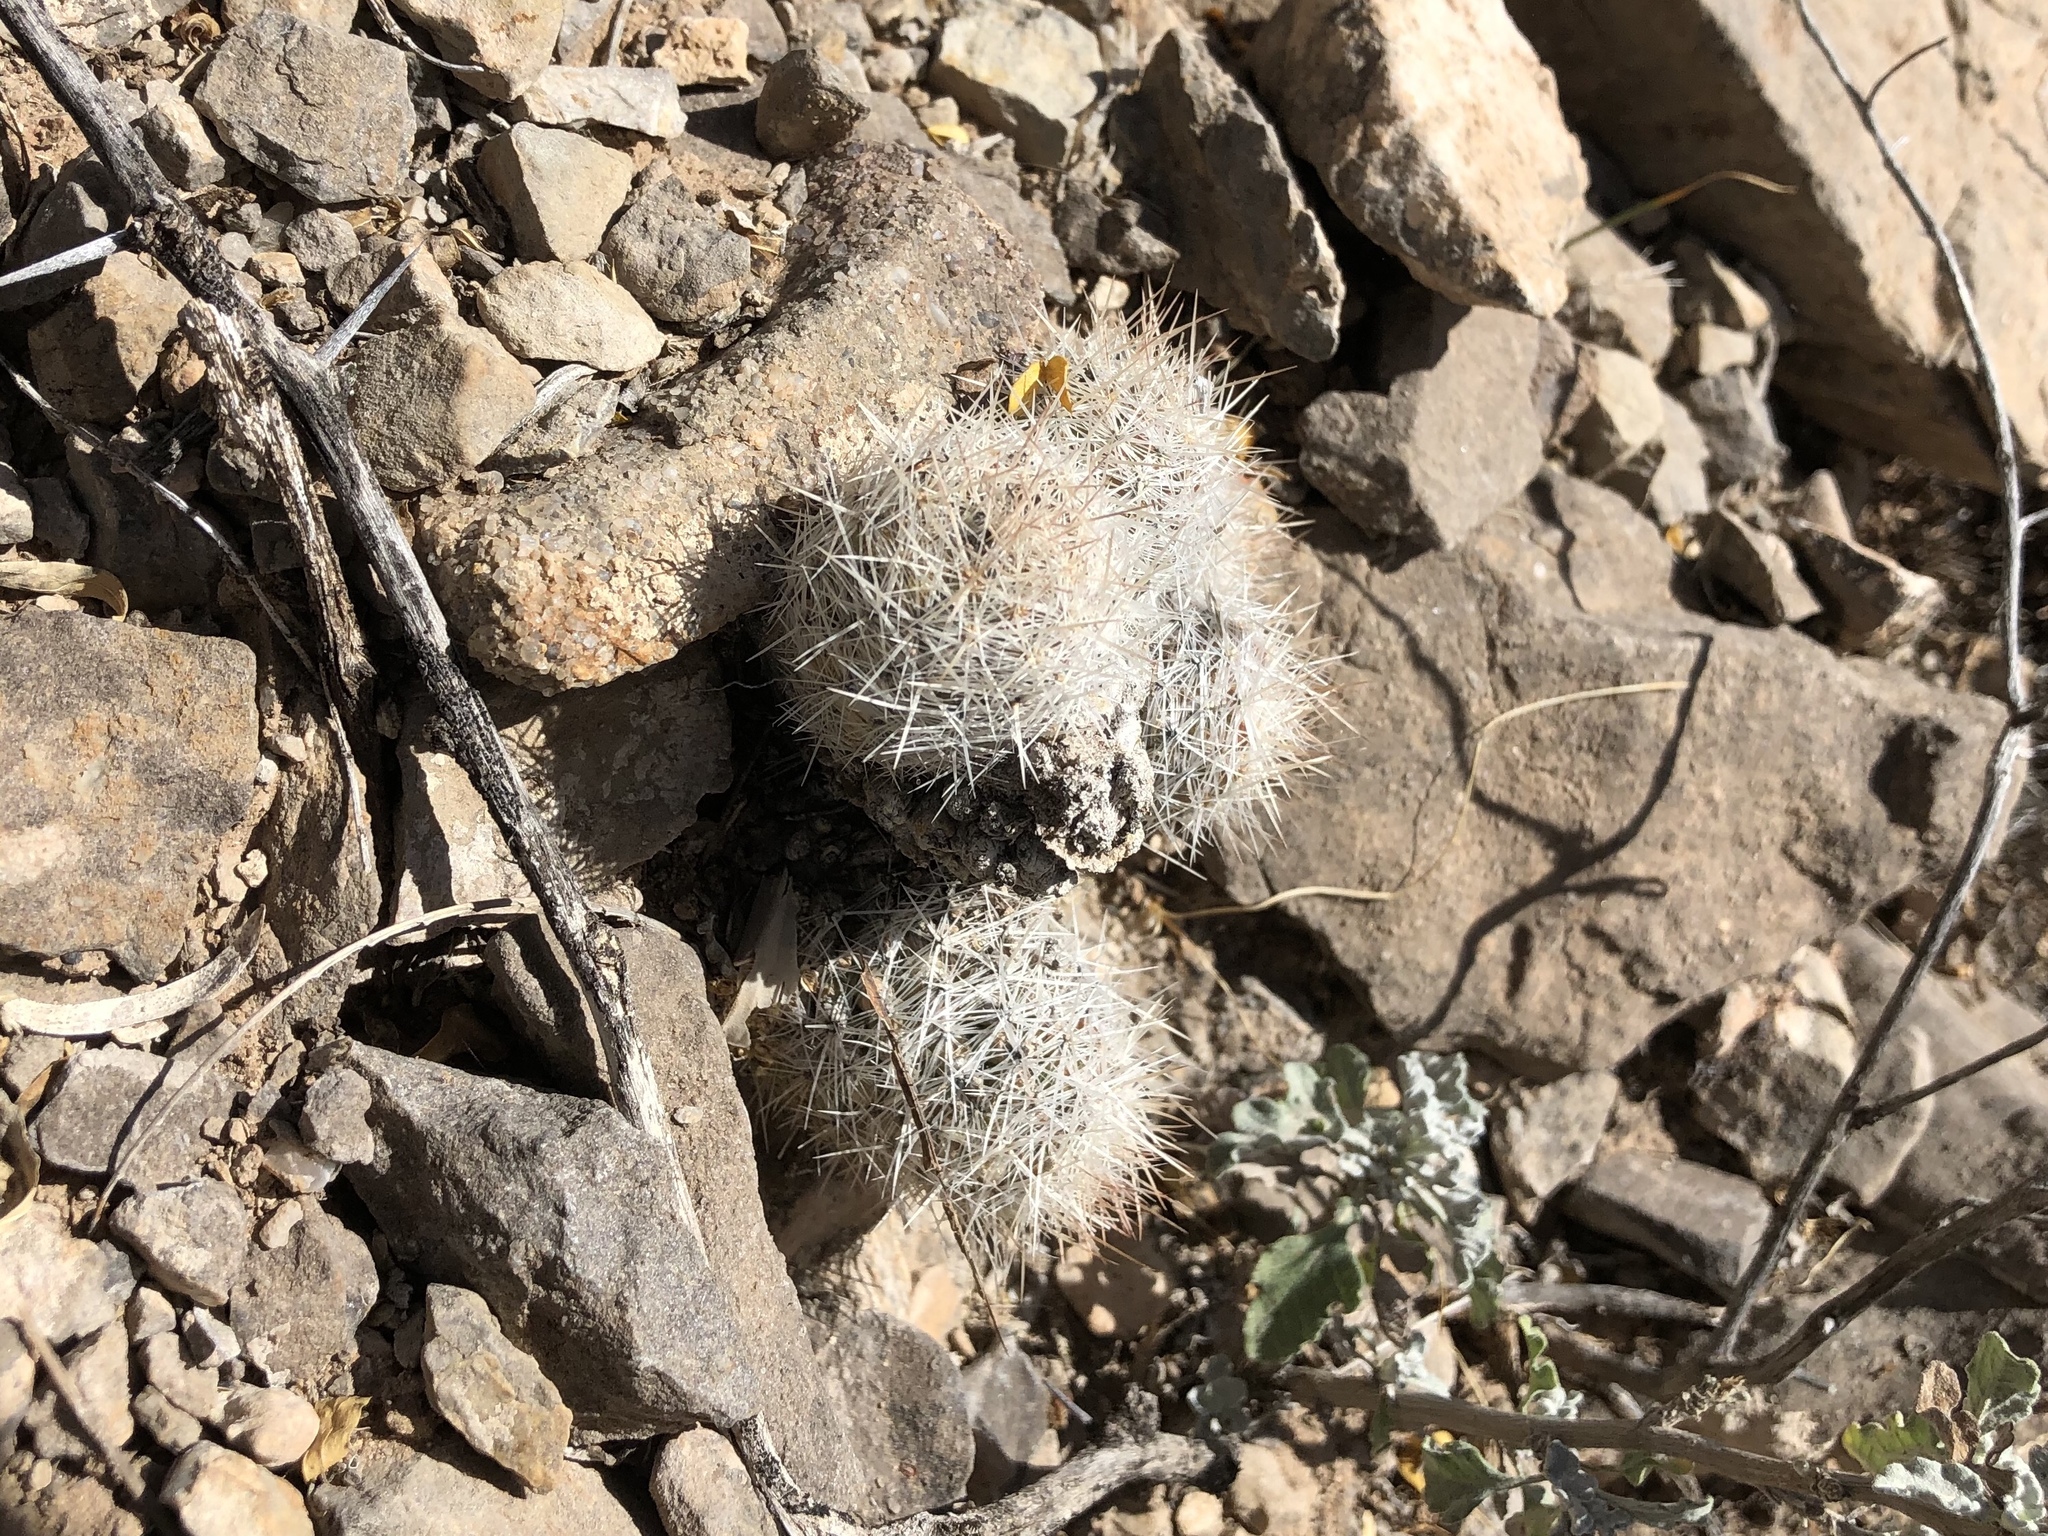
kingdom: Plantae
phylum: Tracheophyta
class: Magnoliopsida
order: Caryophyllales
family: Cactaceae
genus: Pelecyphora
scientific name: Pelecyphora tuberculosa
